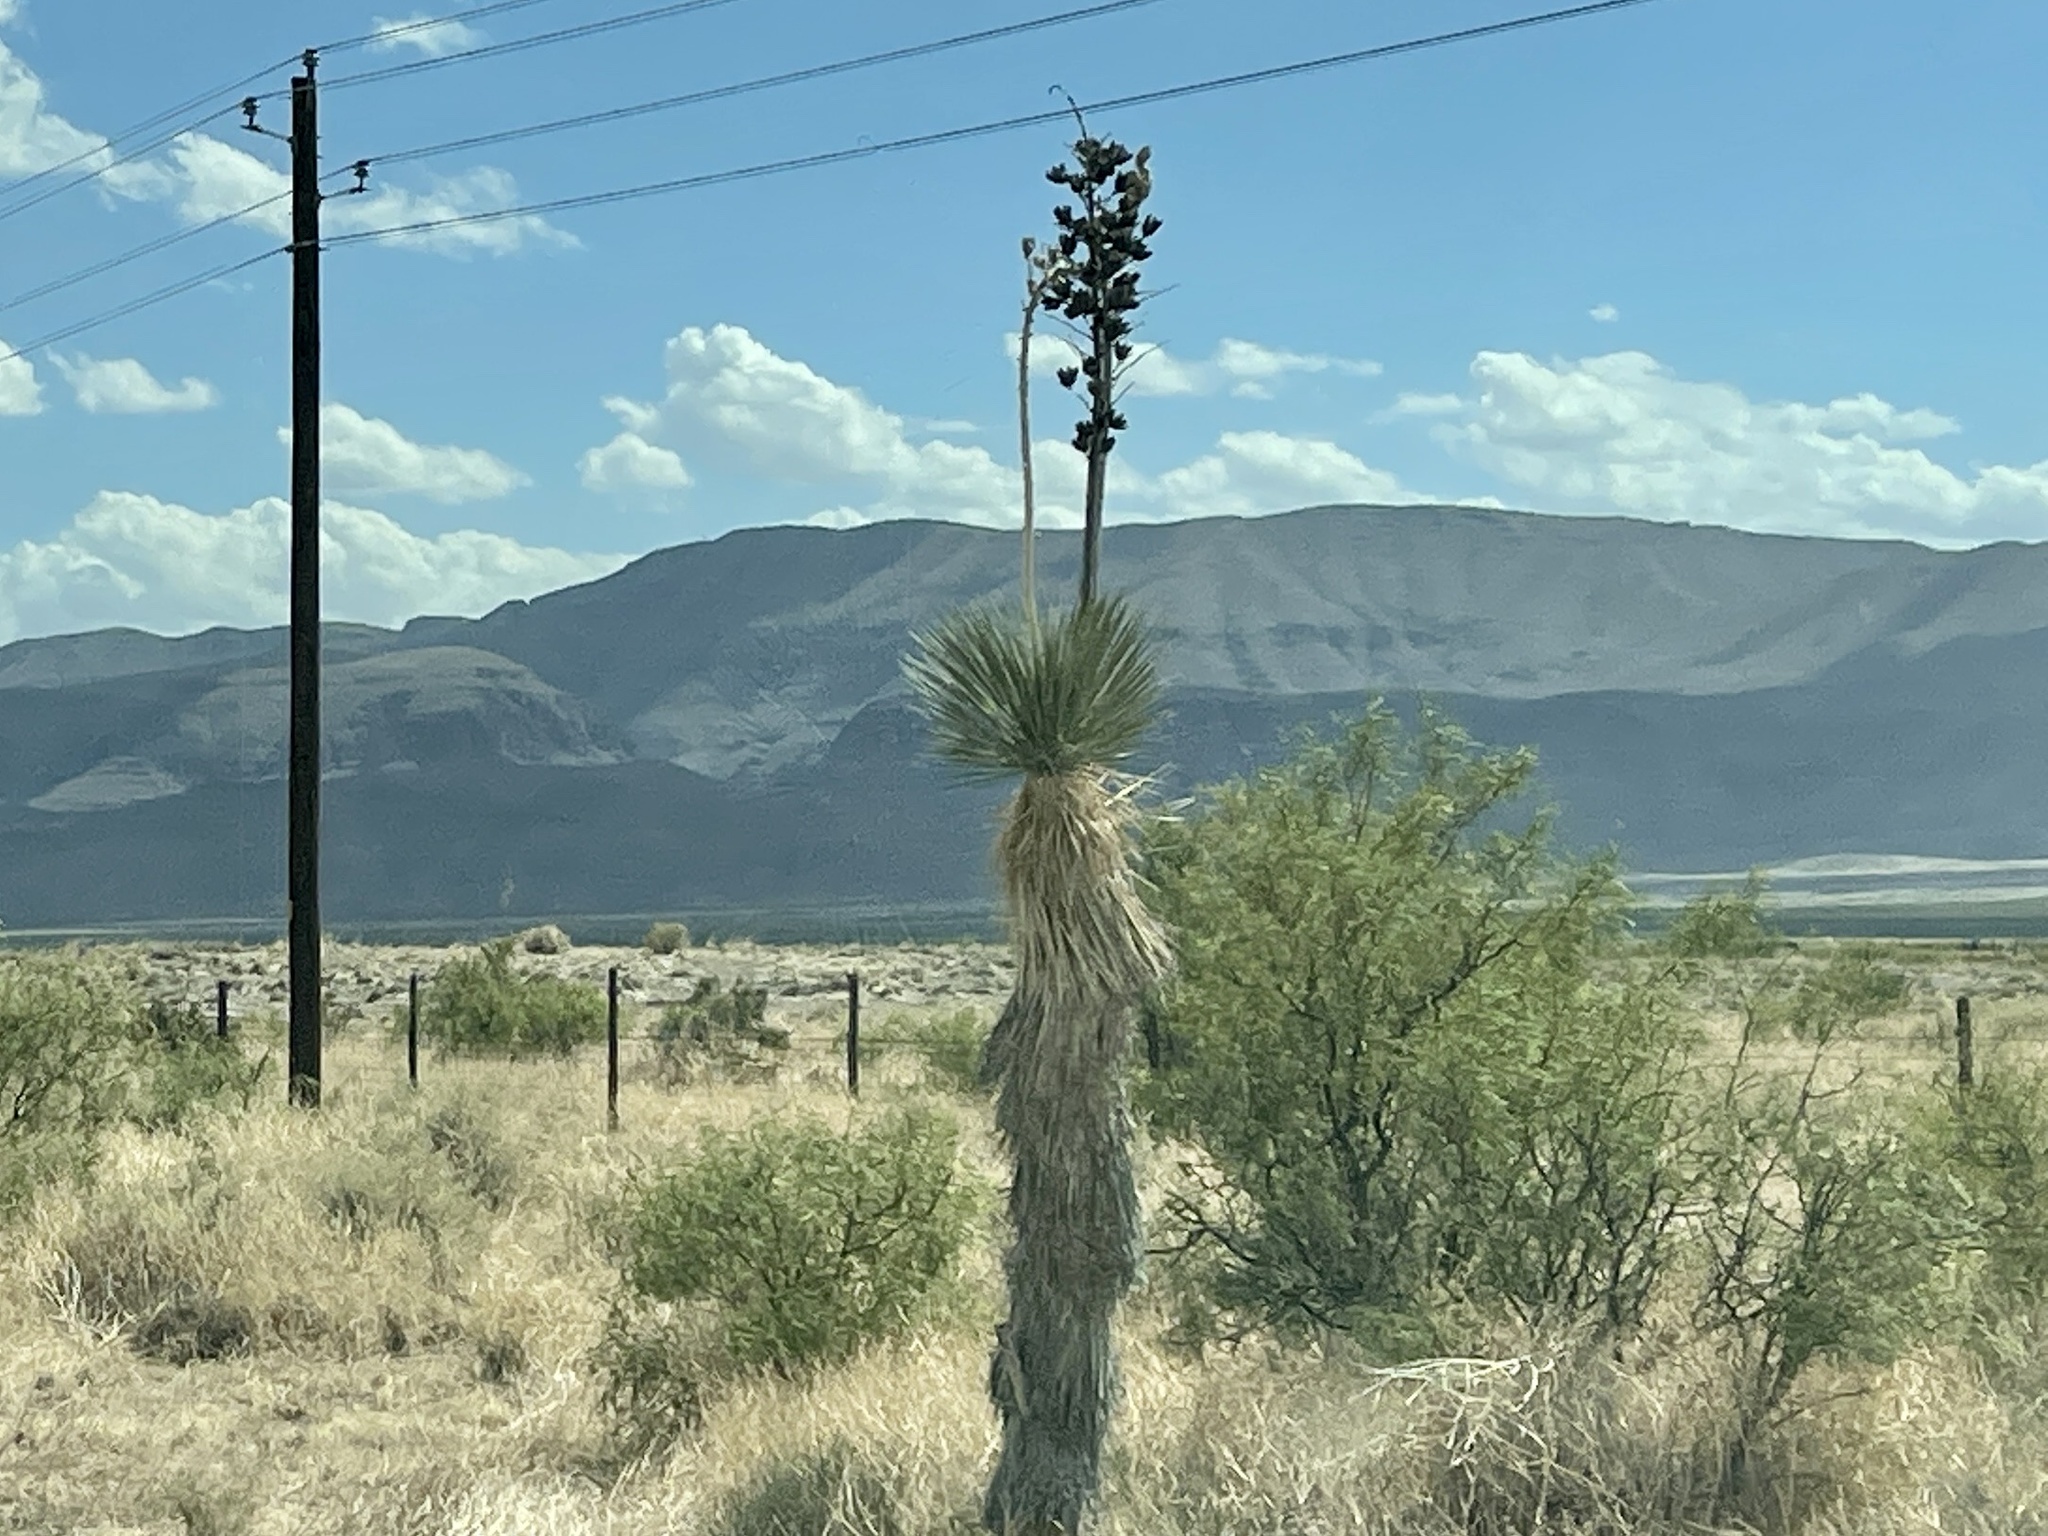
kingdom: Plantae
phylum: Tracheophyta
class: Liliopsida
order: Asparagales
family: Asparagaceae
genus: Yucca
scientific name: Yucca elata
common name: Palmella
